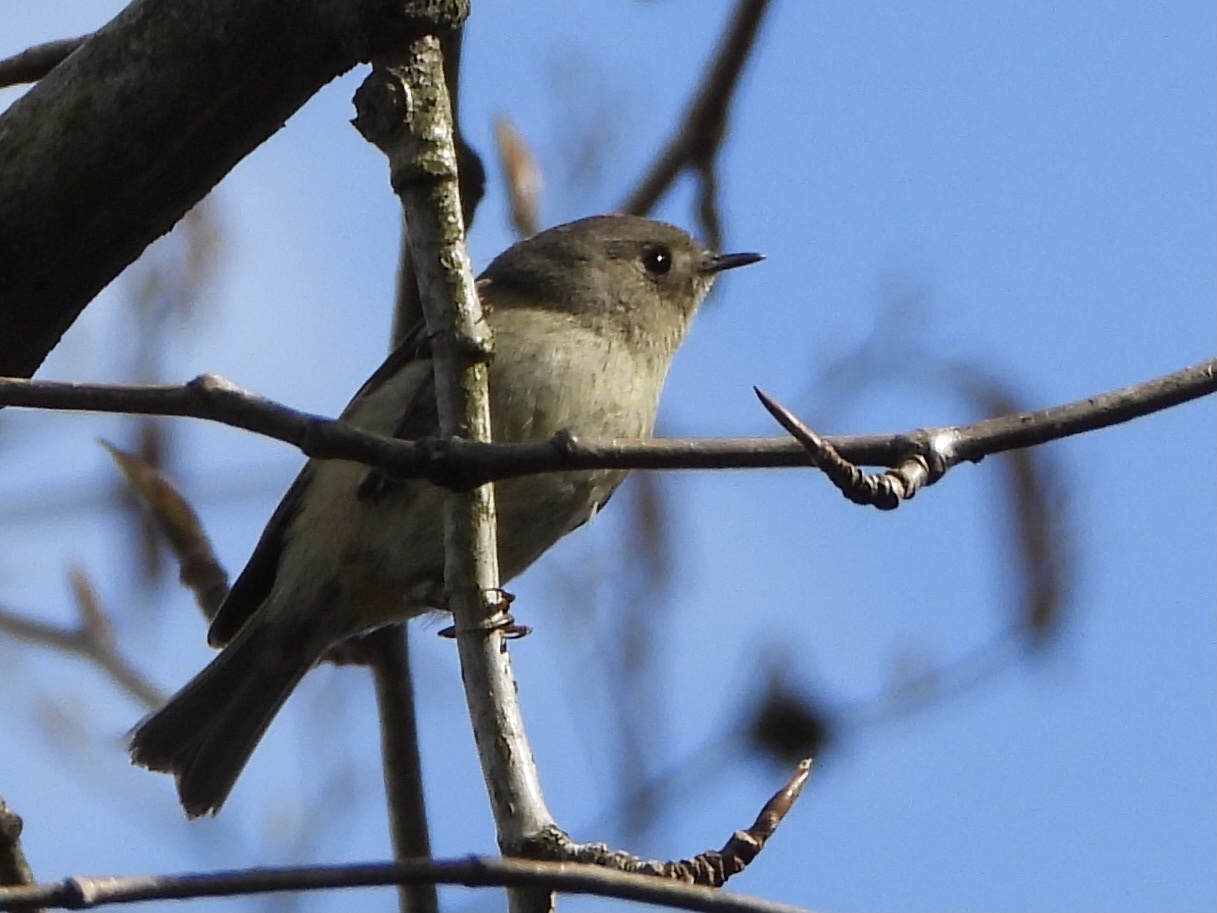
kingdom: Animalia
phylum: Chordata
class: Aves
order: Passeriformes
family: Regulidae
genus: Regulus
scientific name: Regulus calendula
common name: Ruby-crowned kinglet
